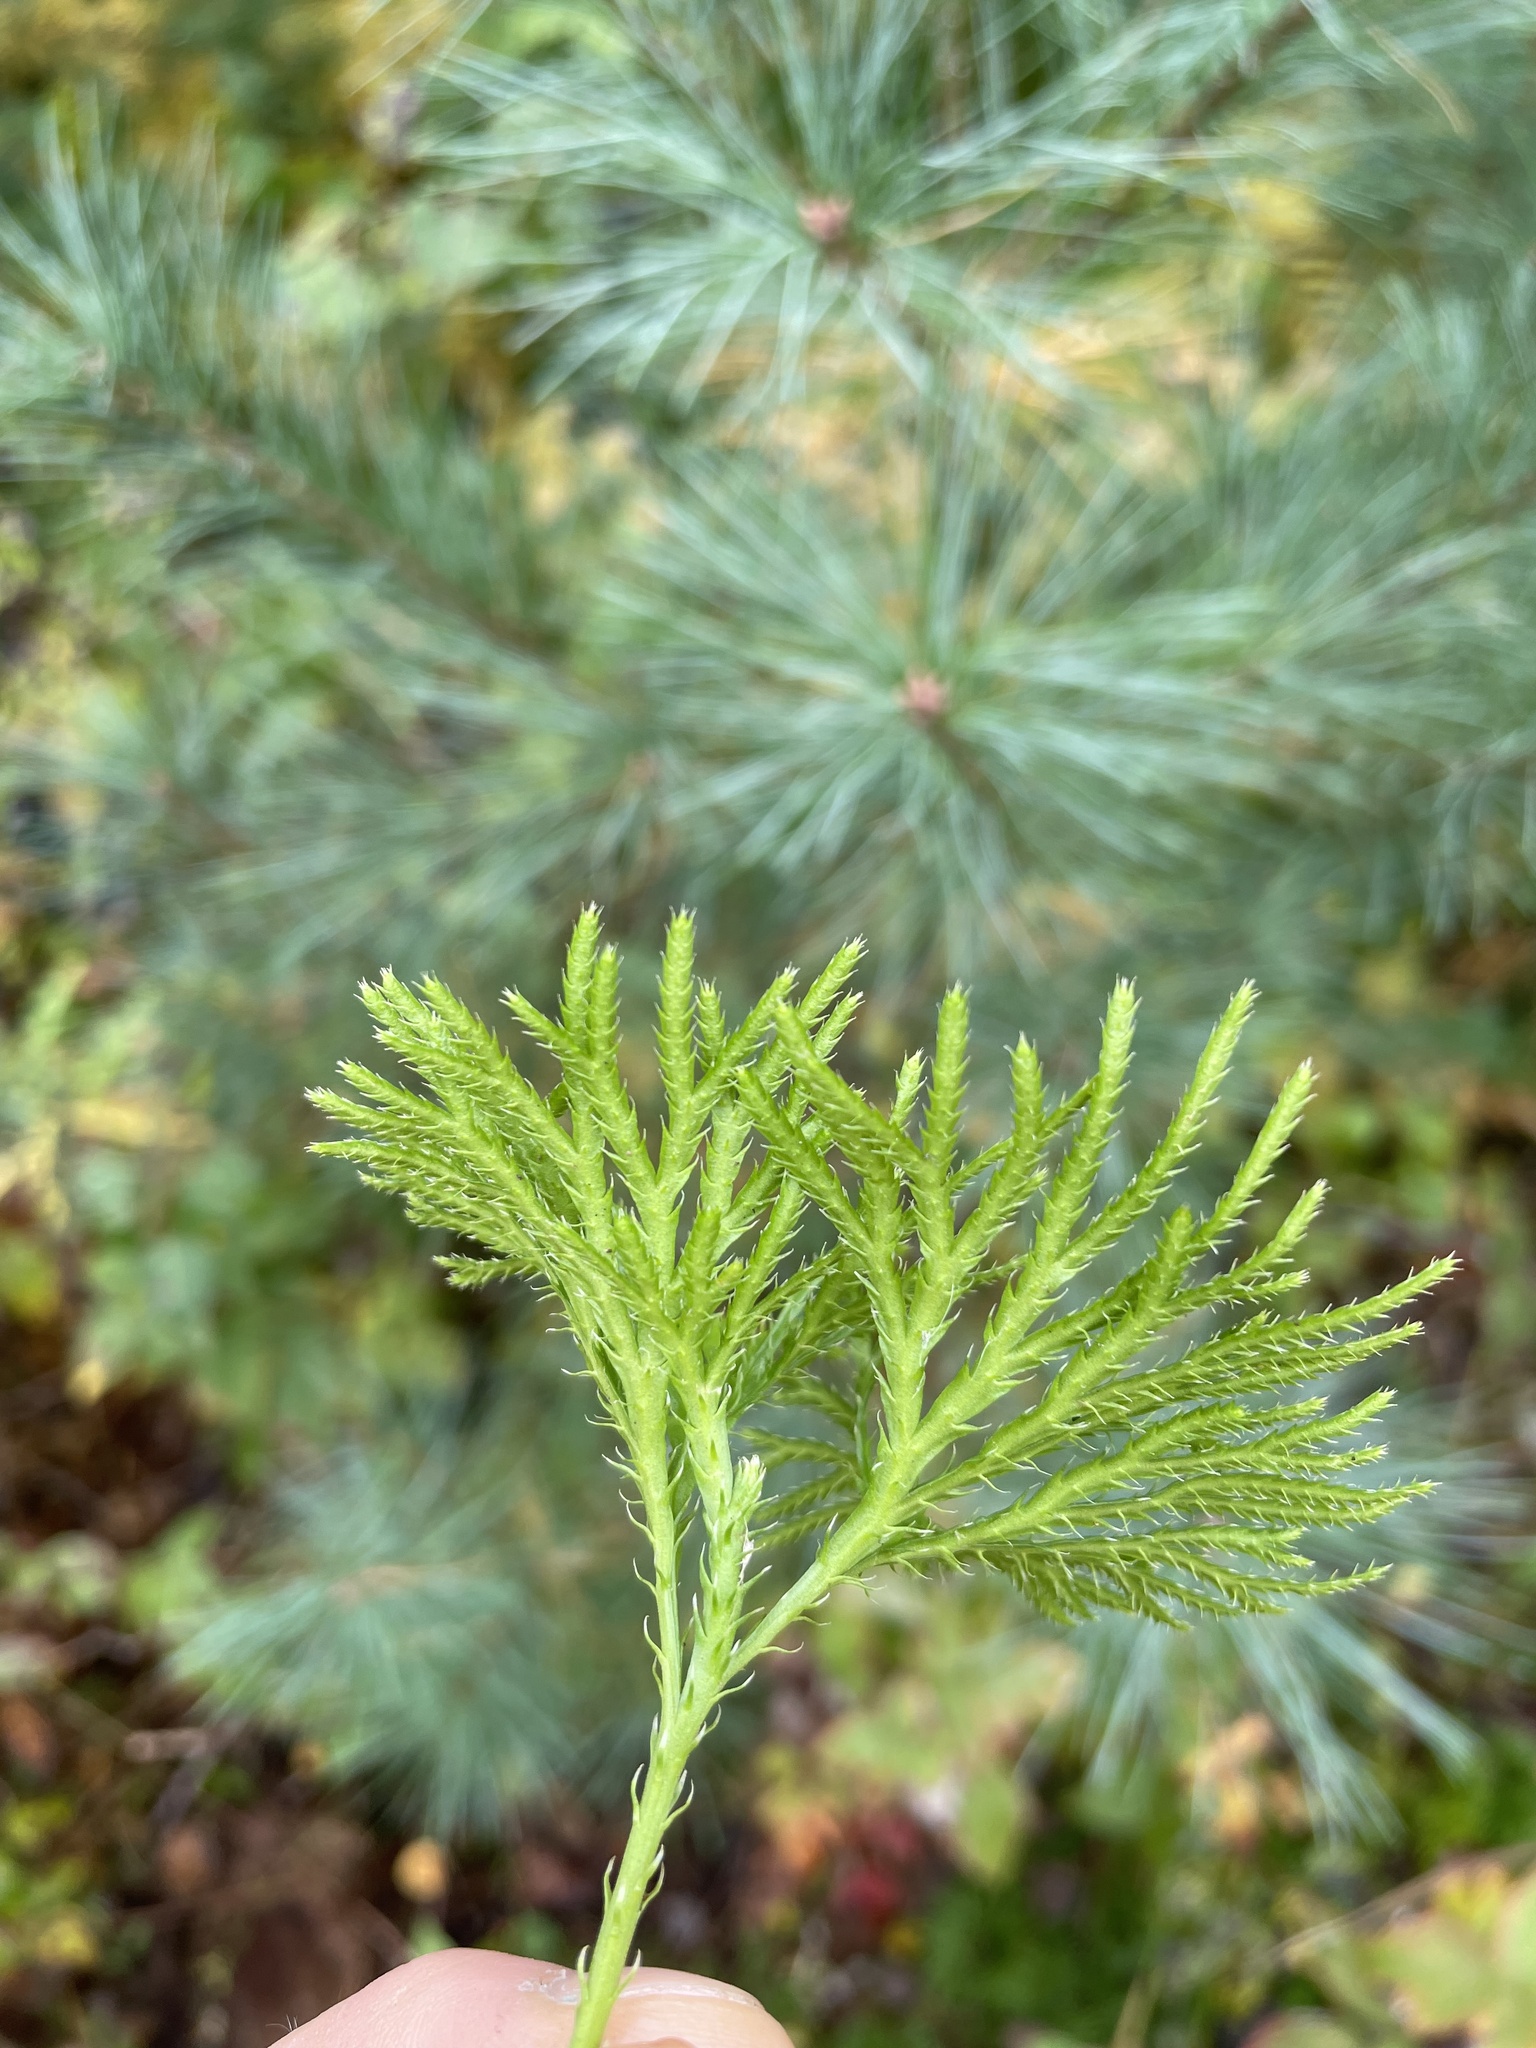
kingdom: Plantae
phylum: Tracheophyta
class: Lycopodiopsida
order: Lycopodiales
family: Lycopodiaceae
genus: Diphasiastrum
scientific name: Diphasiastrum digitatum
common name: Southern running-pine
